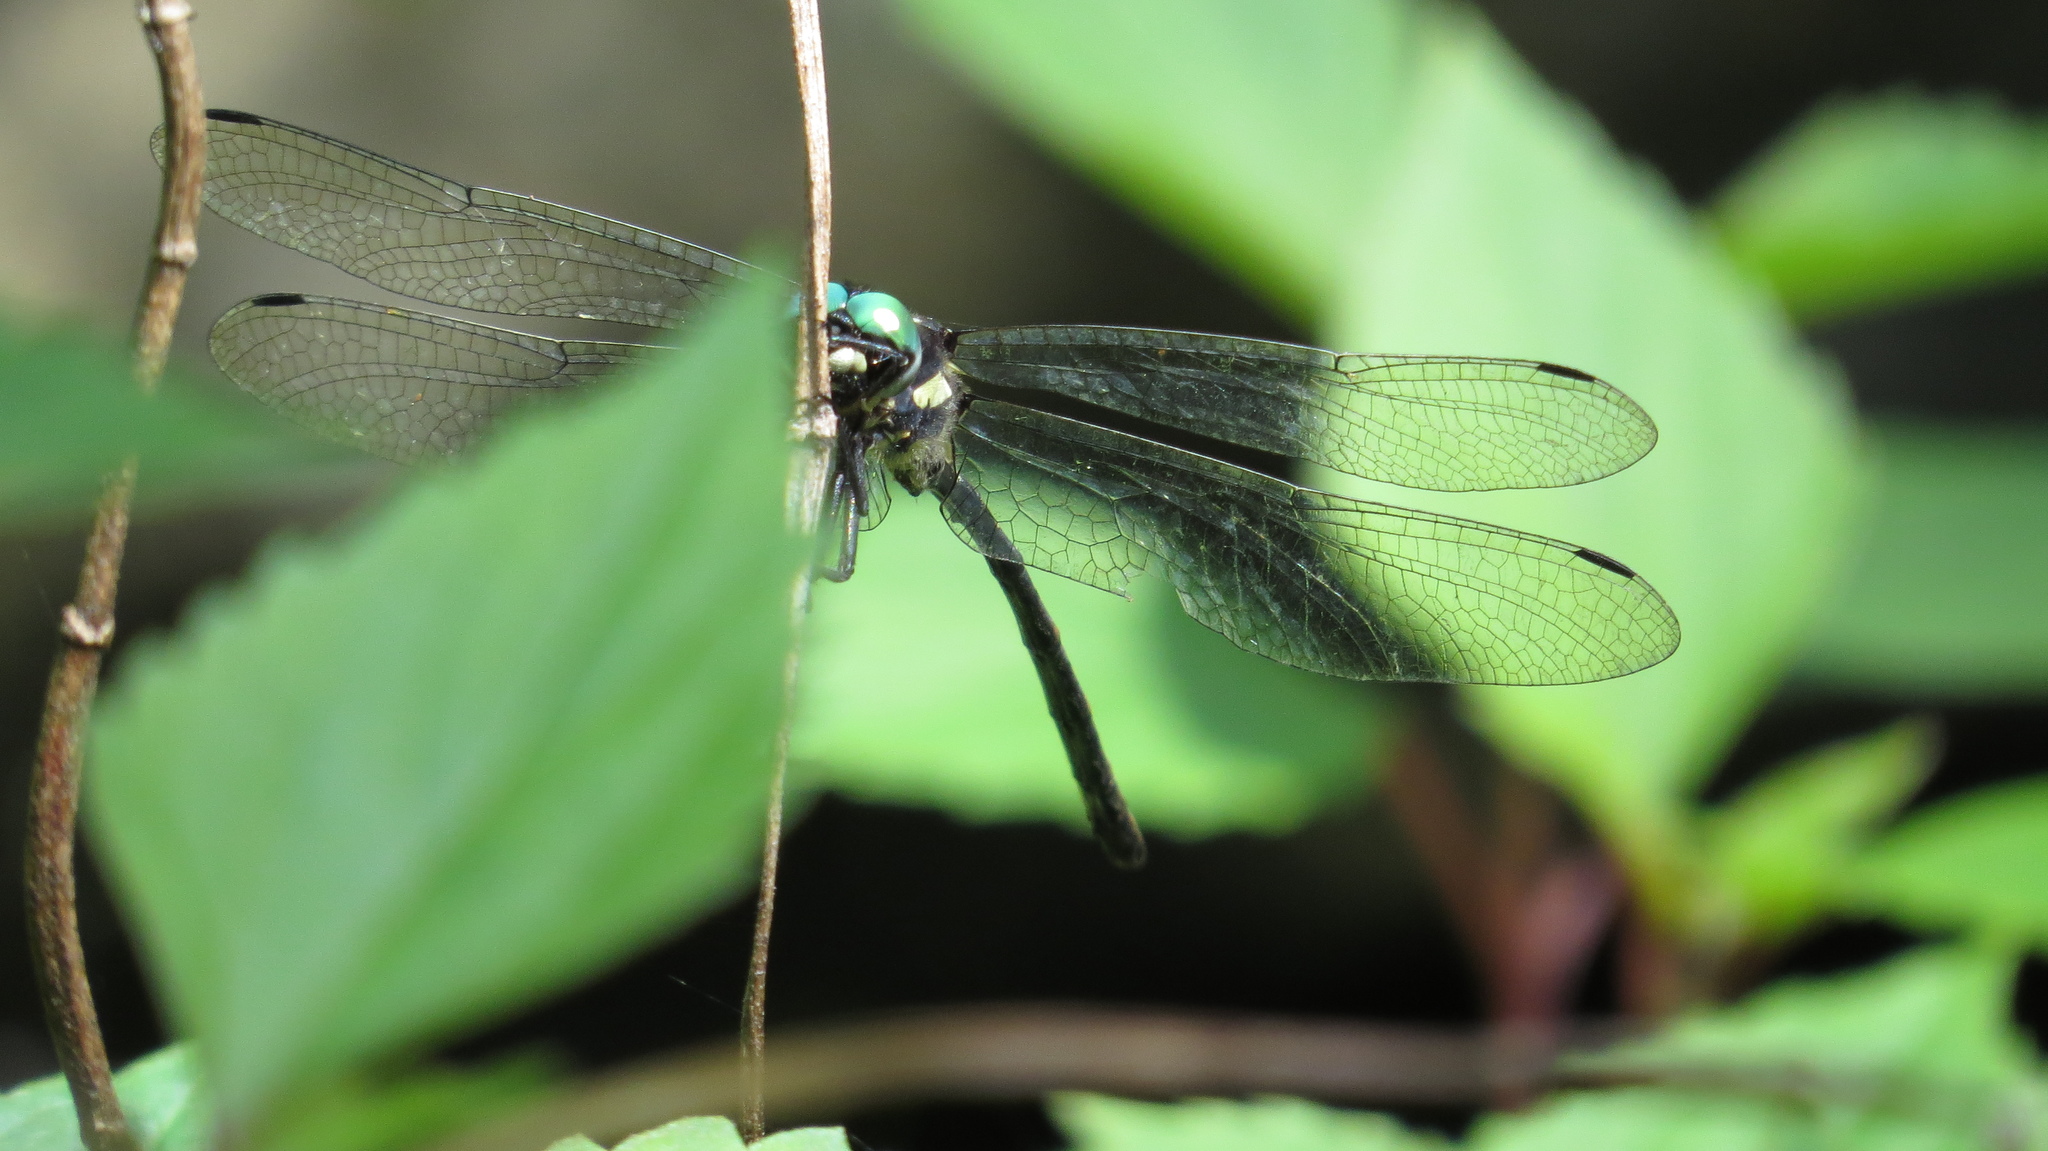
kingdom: Animalia
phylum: Arthropoda
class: Insecta
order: Odonata
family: Synthemistidae
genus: Eusynthemis
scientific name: Eusynthemis nigra
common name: Black tigertail
